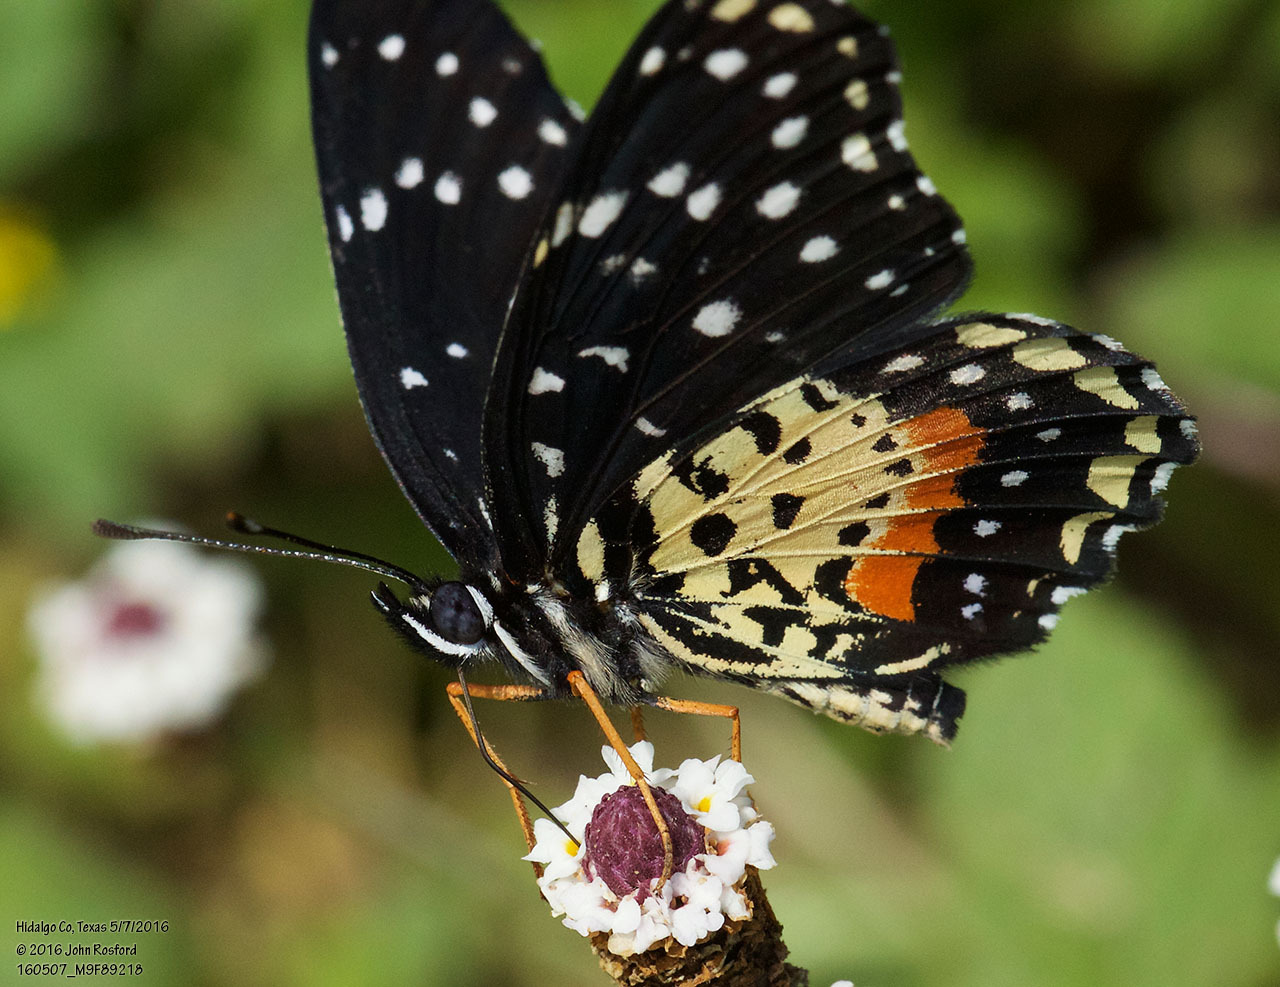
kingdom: Animalia
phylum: Arthropoda
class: Insecta
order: Lepidoptera
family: Nymphalidae
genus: Chlosyne
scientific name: Chlosyne janais
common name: Crimson patch
